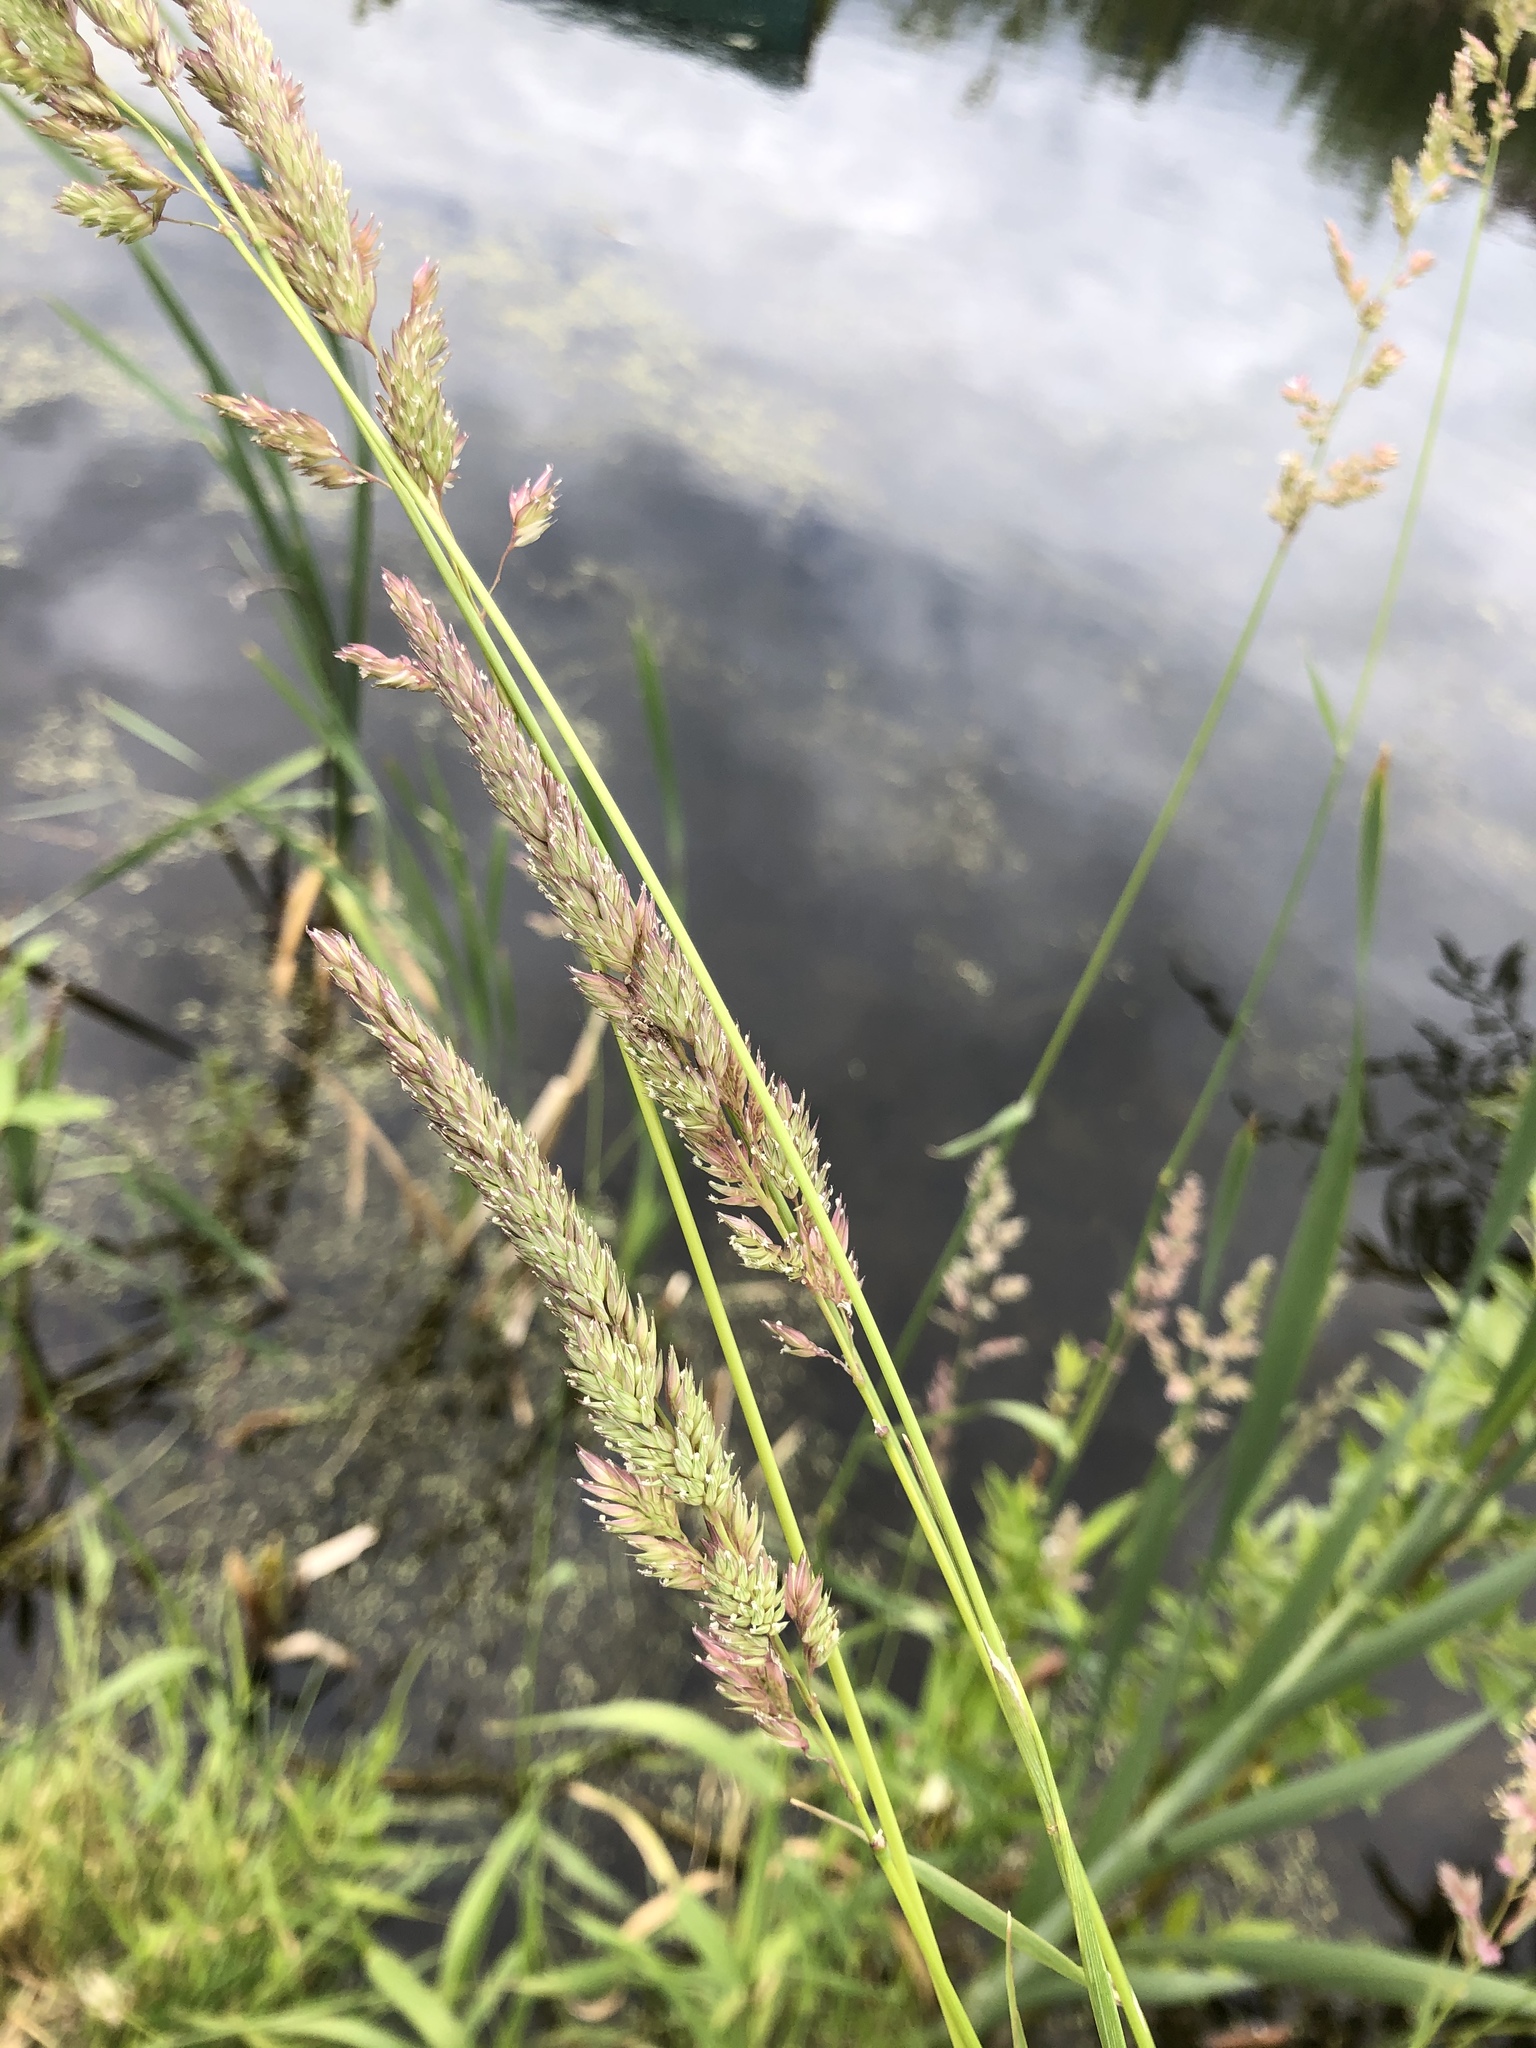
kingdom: Plantae
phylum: Tracheophyta
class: Liliopsida
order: Poales
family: Poaceae
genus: Phalaris
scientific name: Phalaris arundinacea
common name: Reed canary-grass
